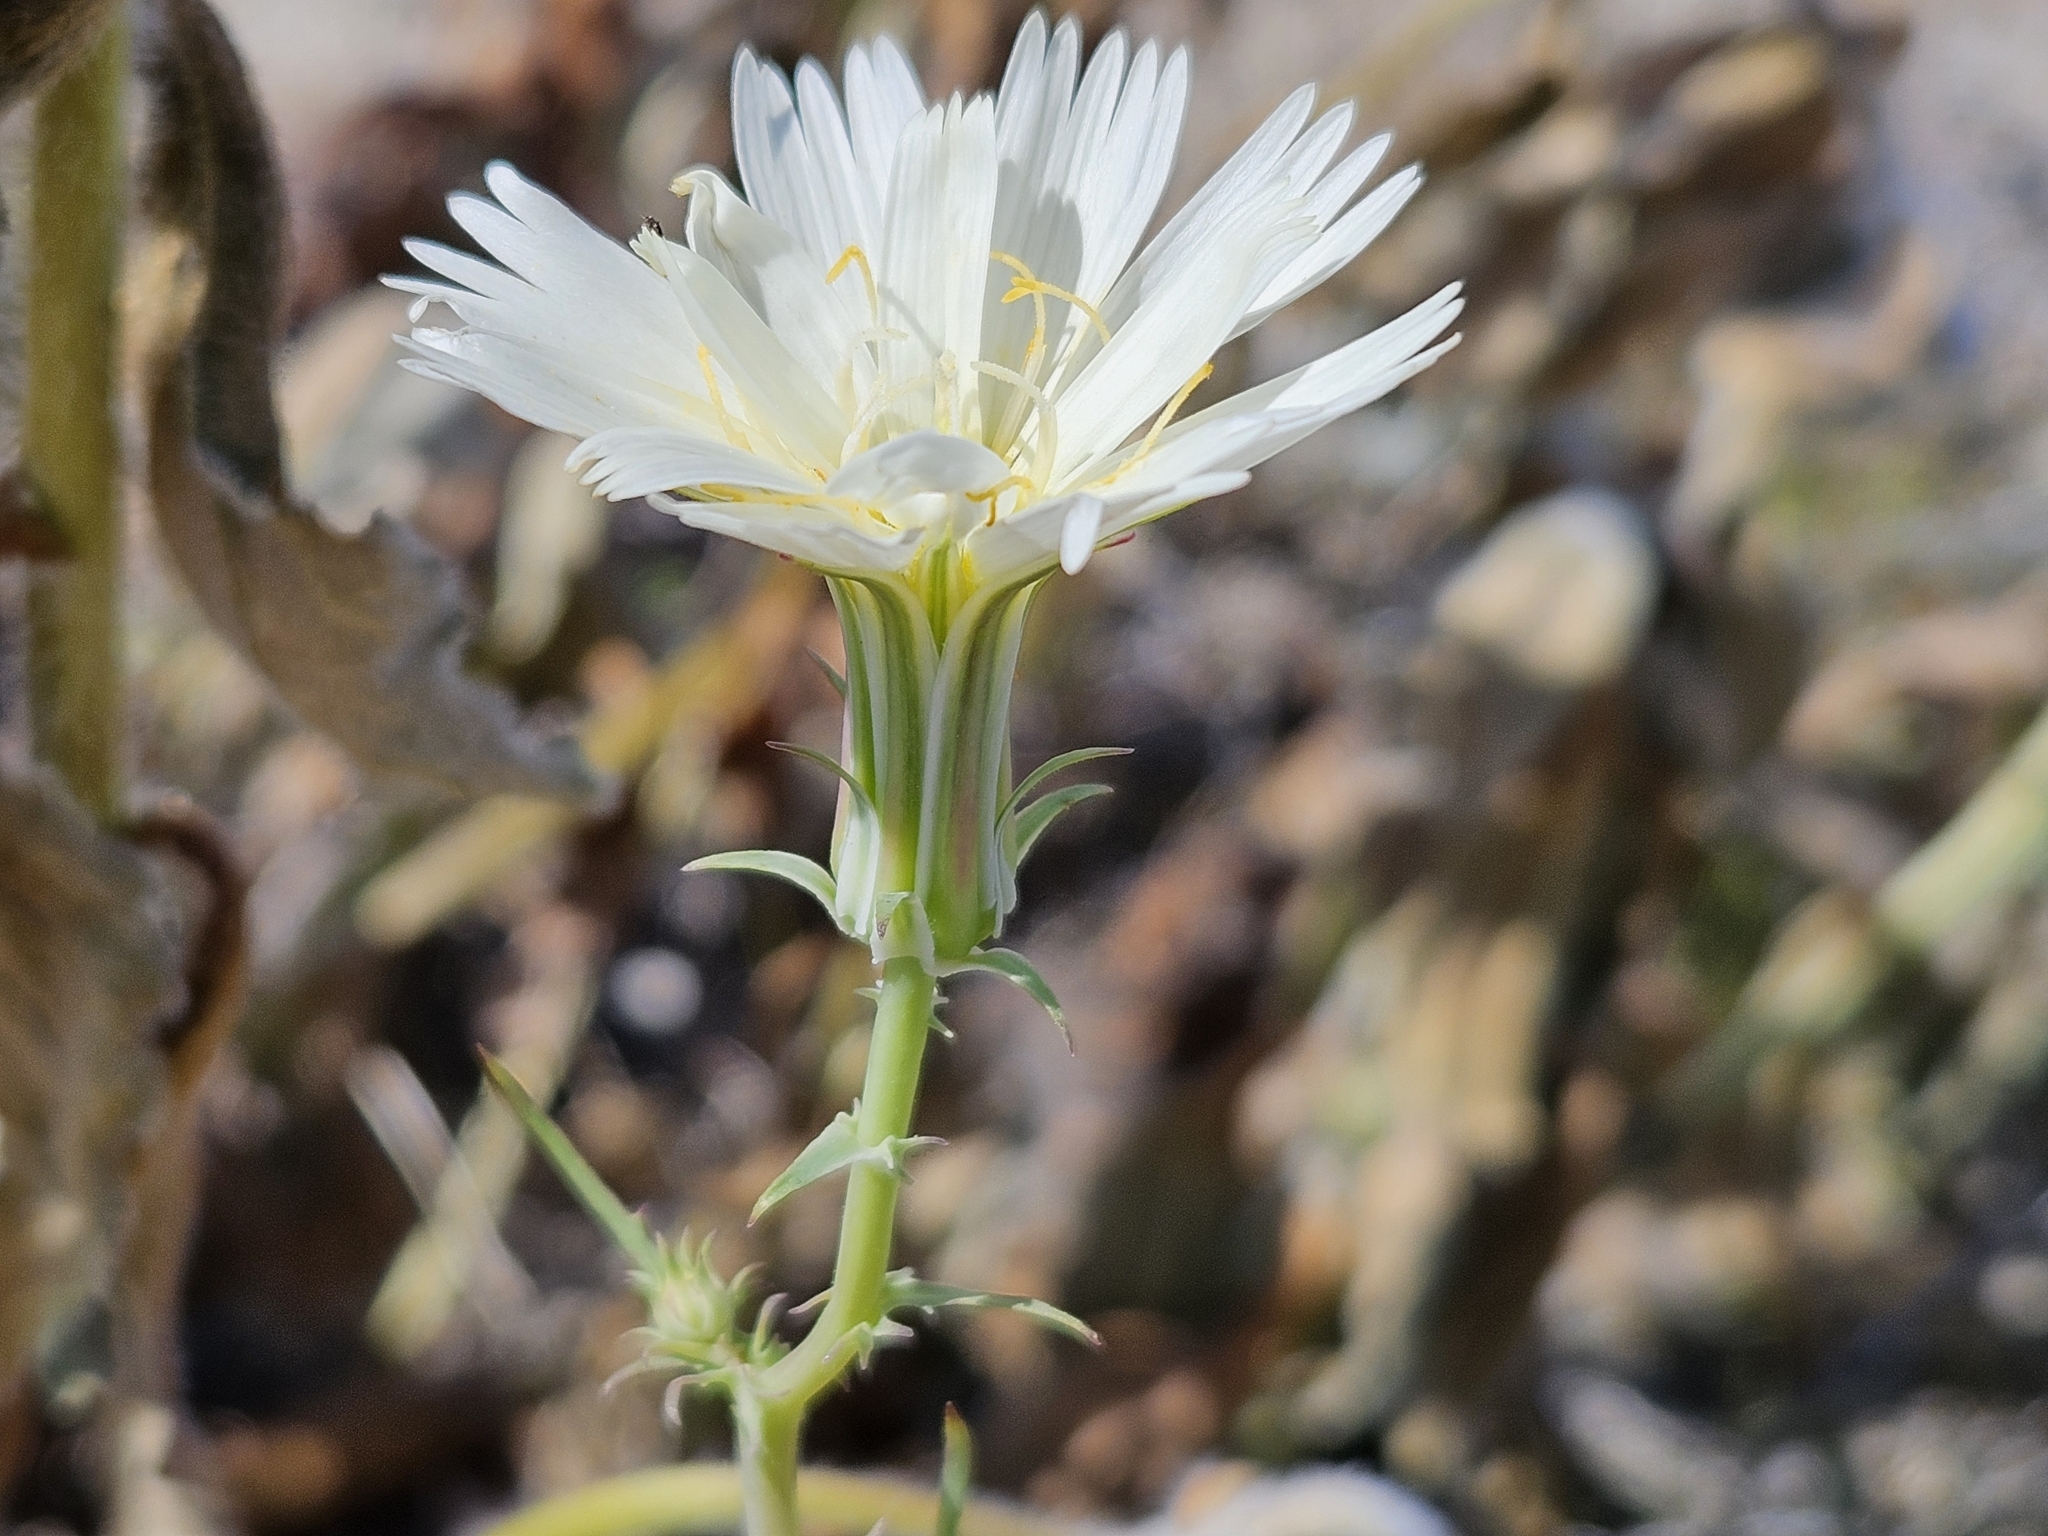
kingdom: Plantae
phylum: Tracheophyta
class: Magnoliopsida
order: Asterales
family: Asteraceae
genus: Rafinesquia
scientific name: Rafinesquia neomexicana
